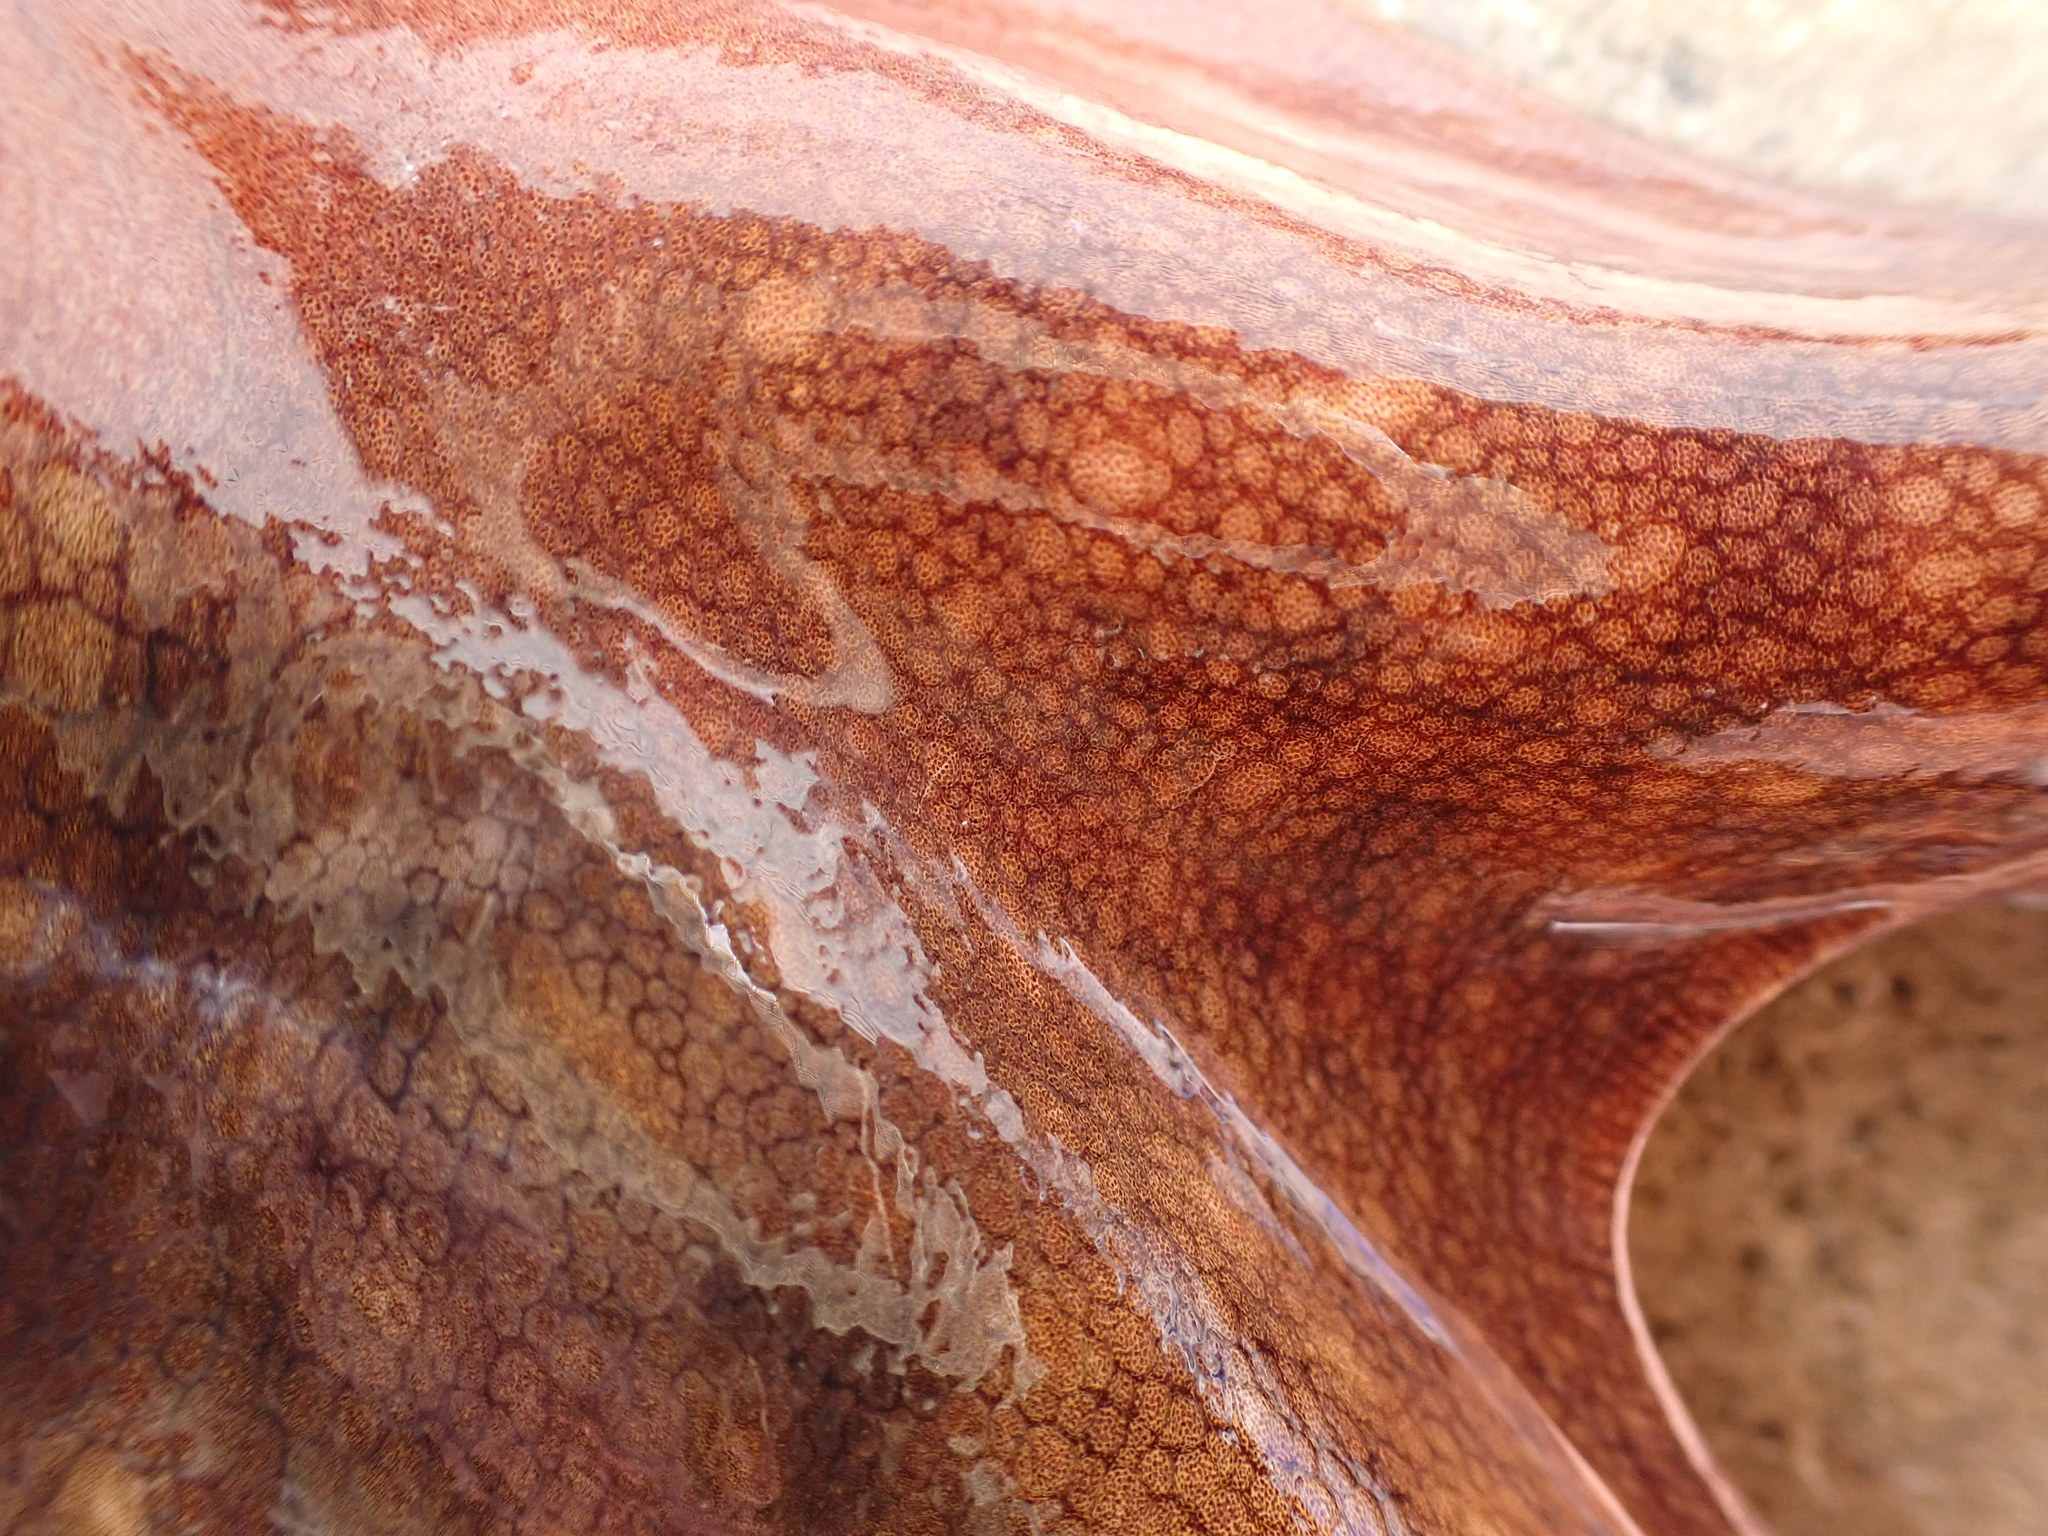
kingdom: Animalia
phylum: Mollusca
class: Cephalopoda
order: Octopoda
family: Octopodidae
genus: Octopus
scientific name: Octopus tetricus
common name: Sydney octopus
